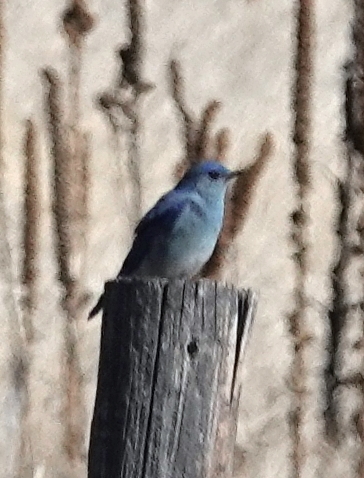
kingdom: Animalia
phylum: Chordata
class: Aves
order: Passeriformes
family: Turdidae
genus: Sialia
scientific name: Sialia currucoides
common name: Mountain bluebird
